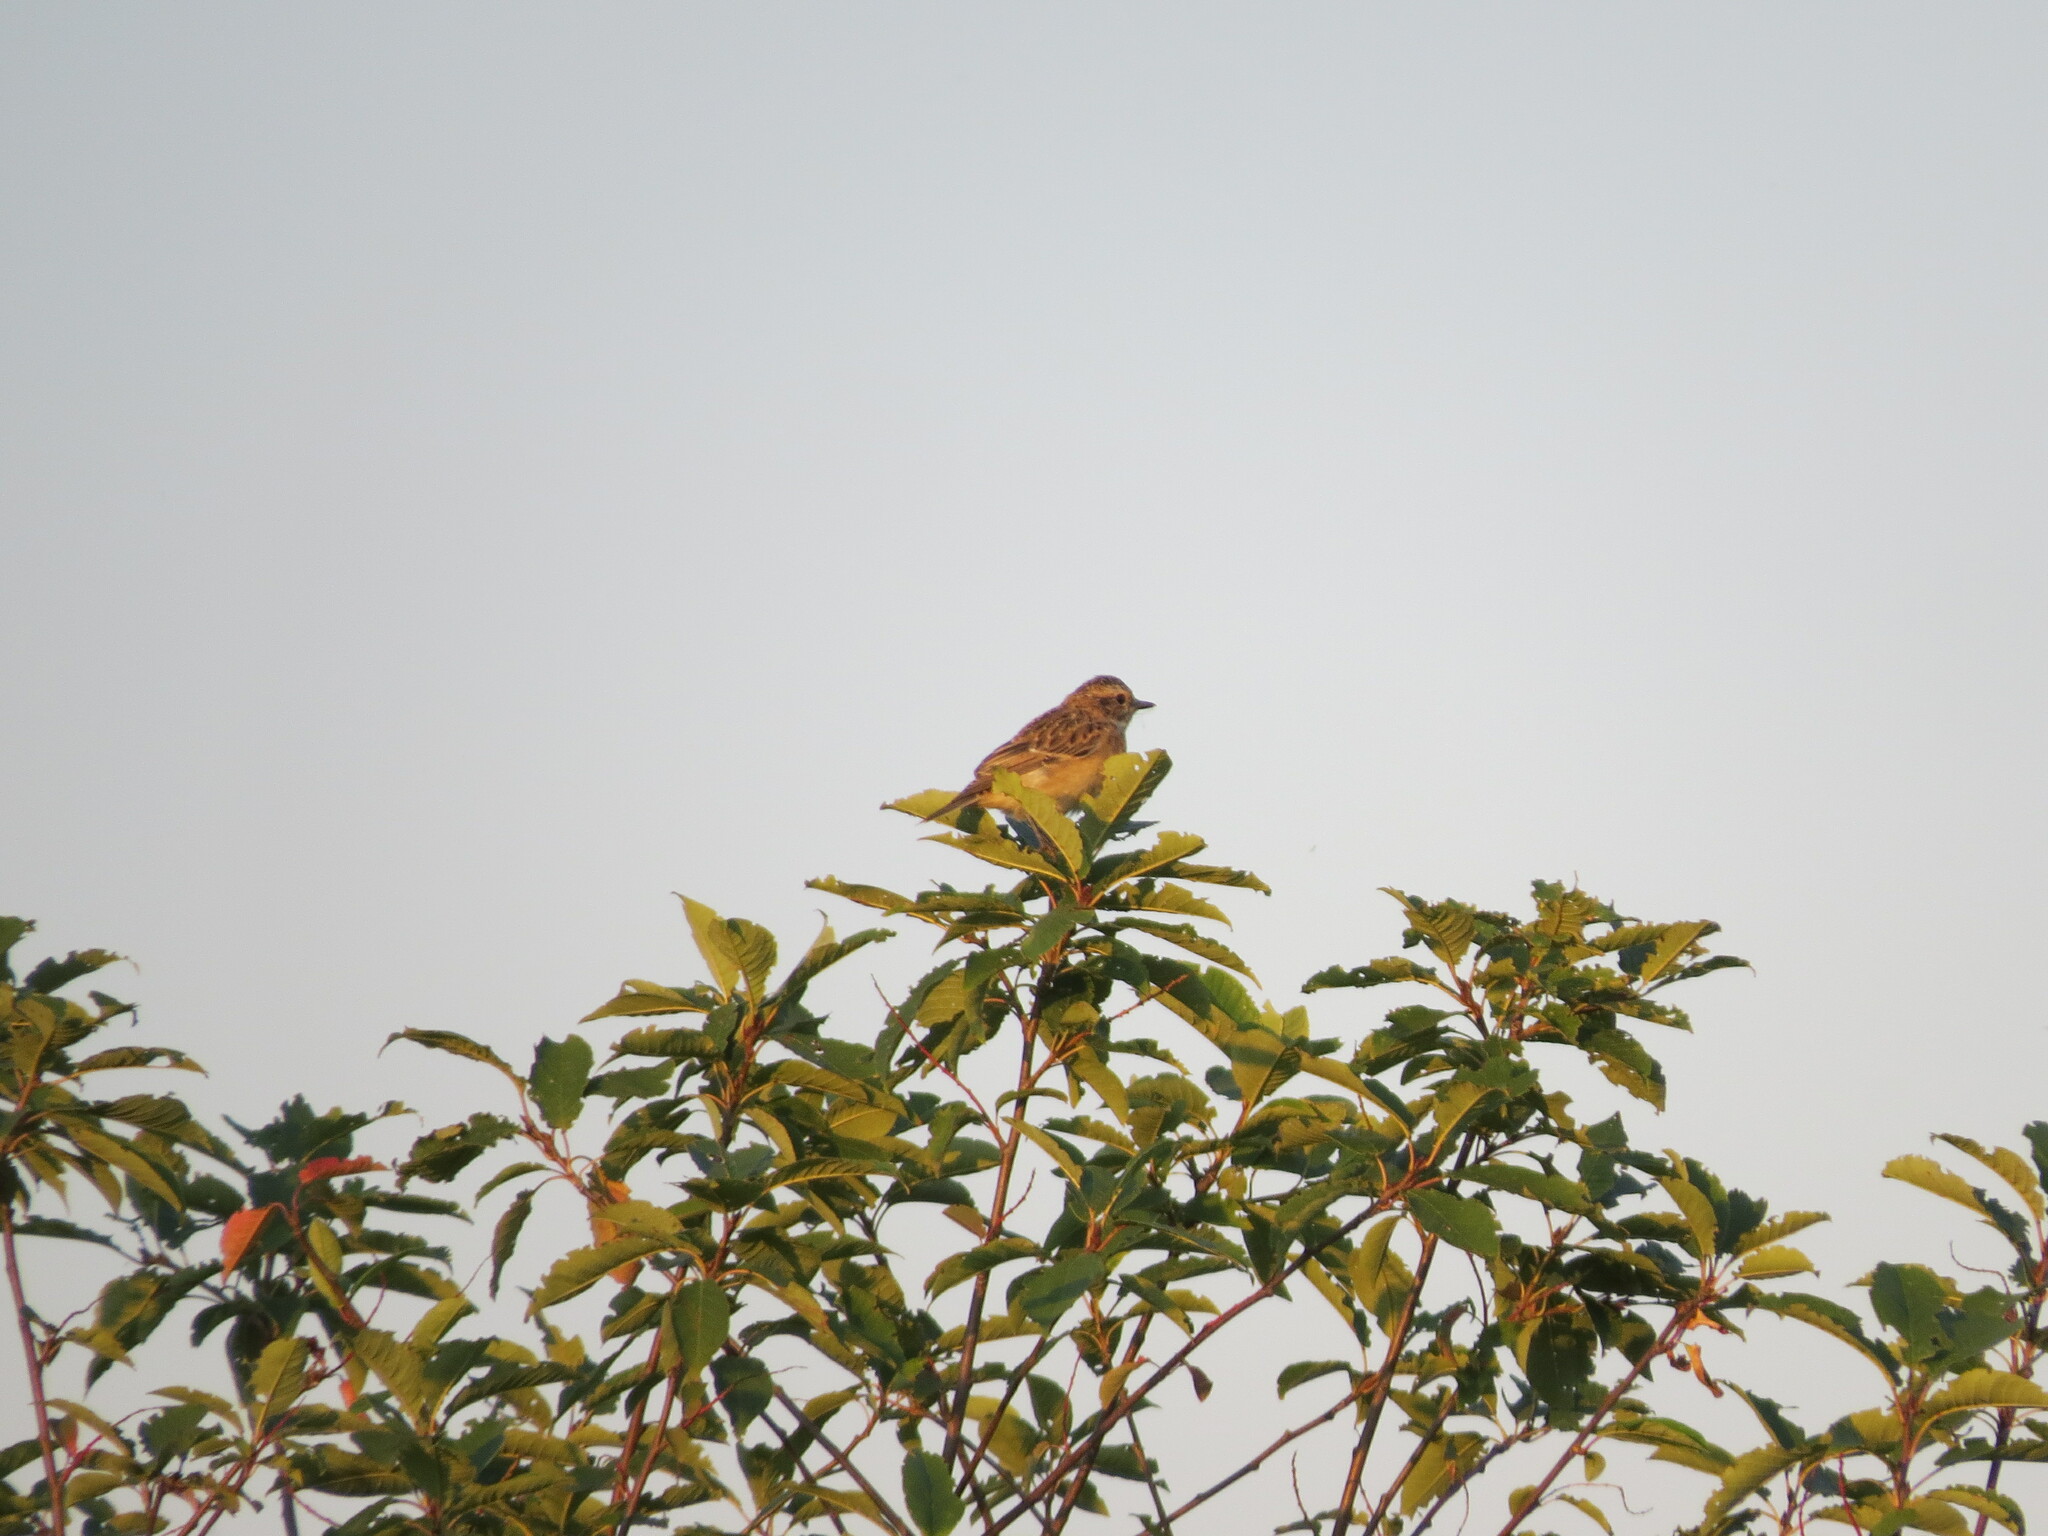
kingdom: Animalia
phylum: Chordata
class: Aves
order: Passeriformes
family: Muscicapidae
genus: Saxicola
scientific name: Saxicola rubetra
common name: Whinchat
